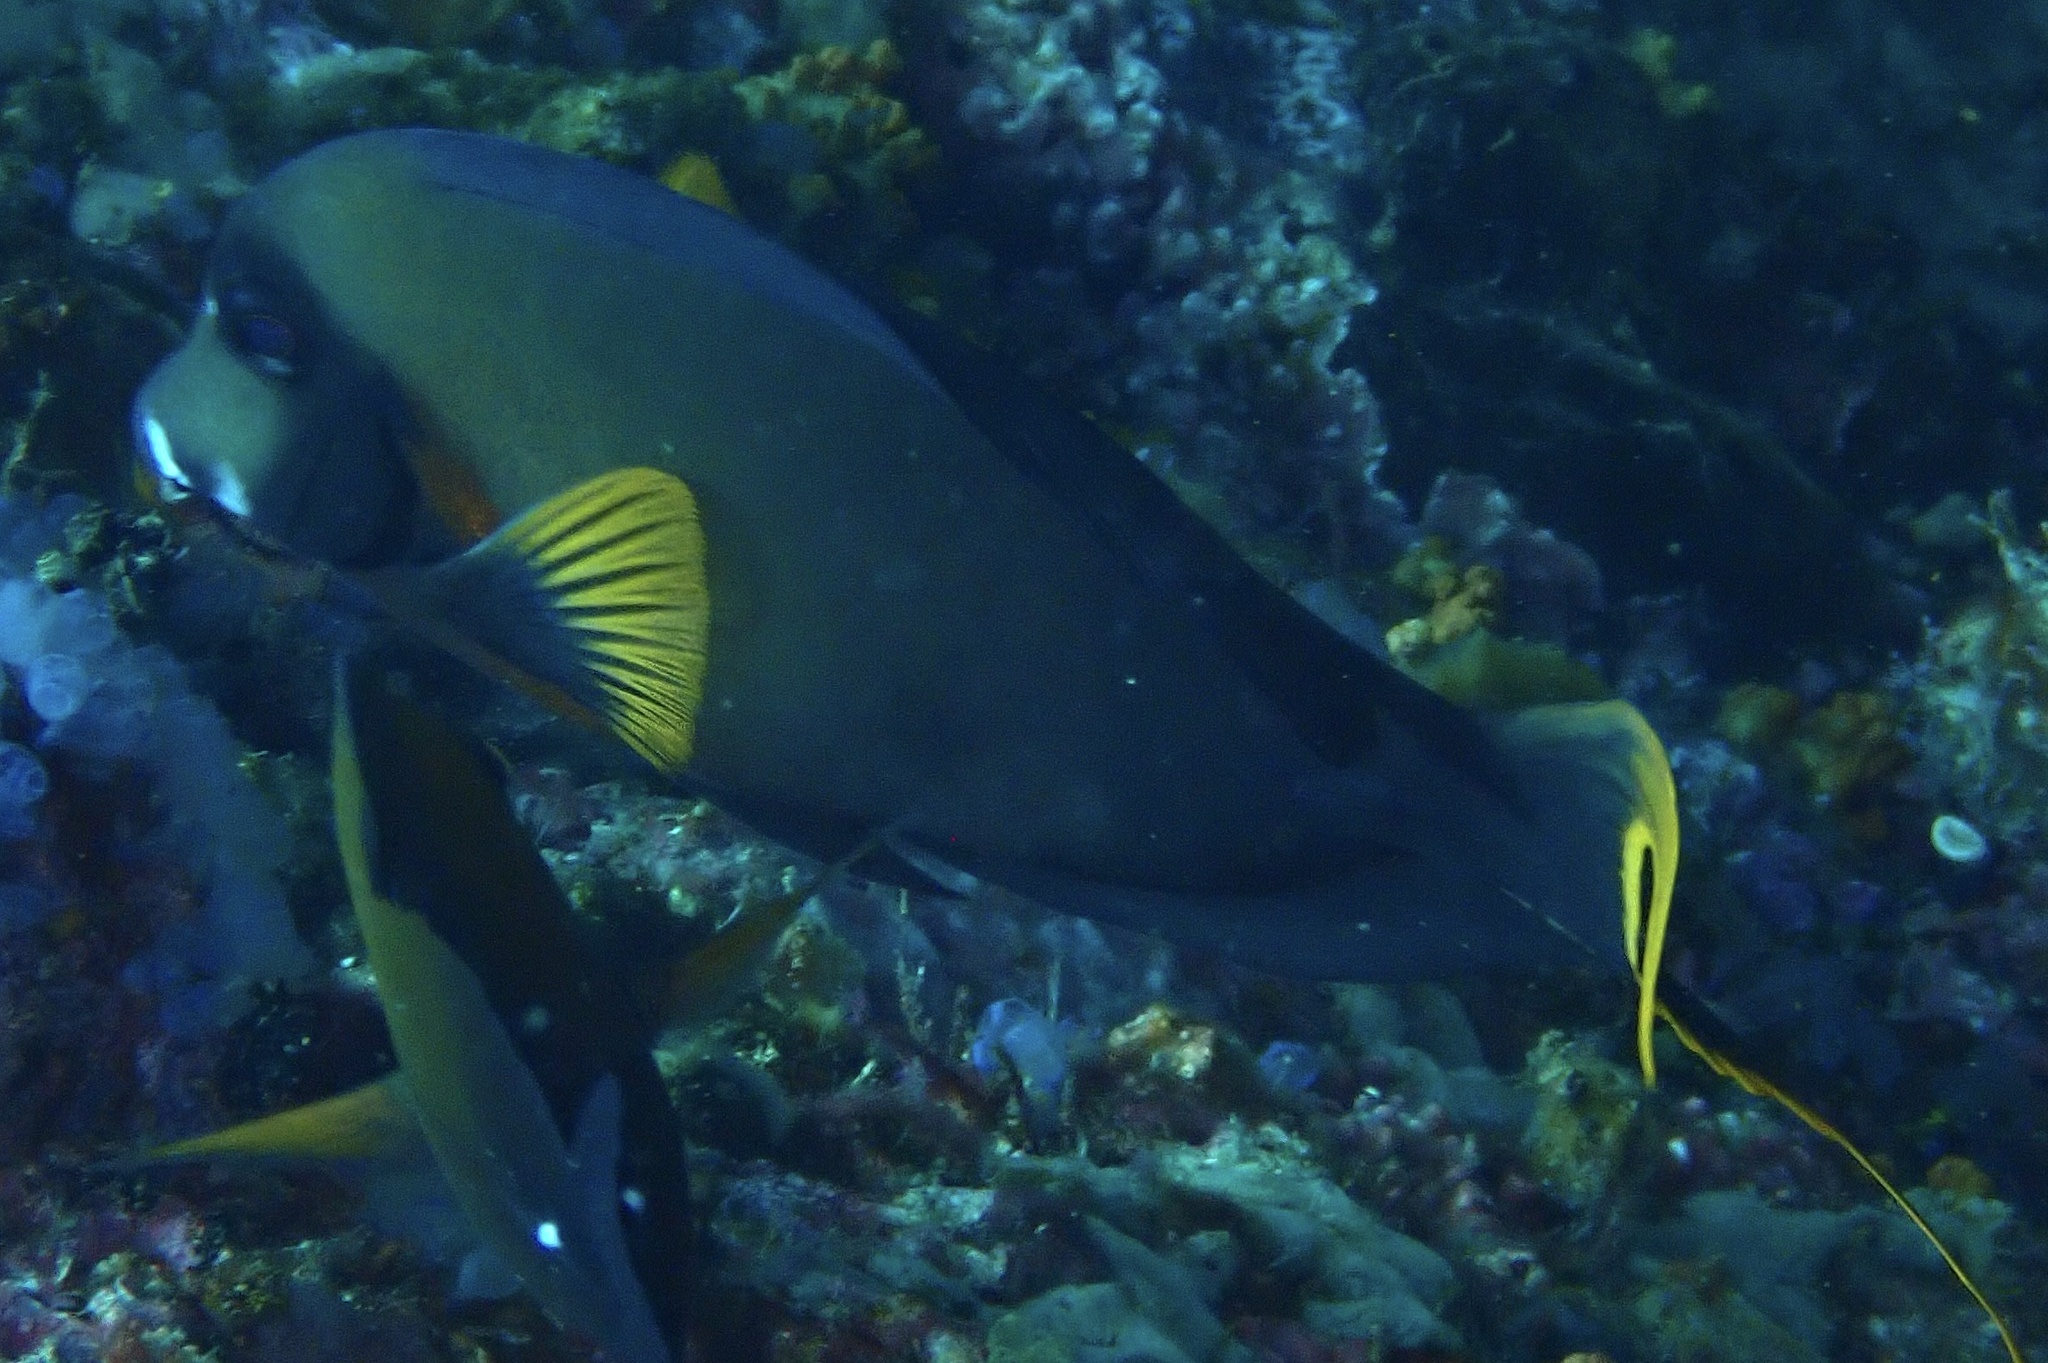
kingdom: Animalia
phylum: Chordata
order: Perciformes
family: Acanthuridae
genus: Acanthurus
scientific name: Acanthurus pyroferus
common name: Chocolate surgeonfish
